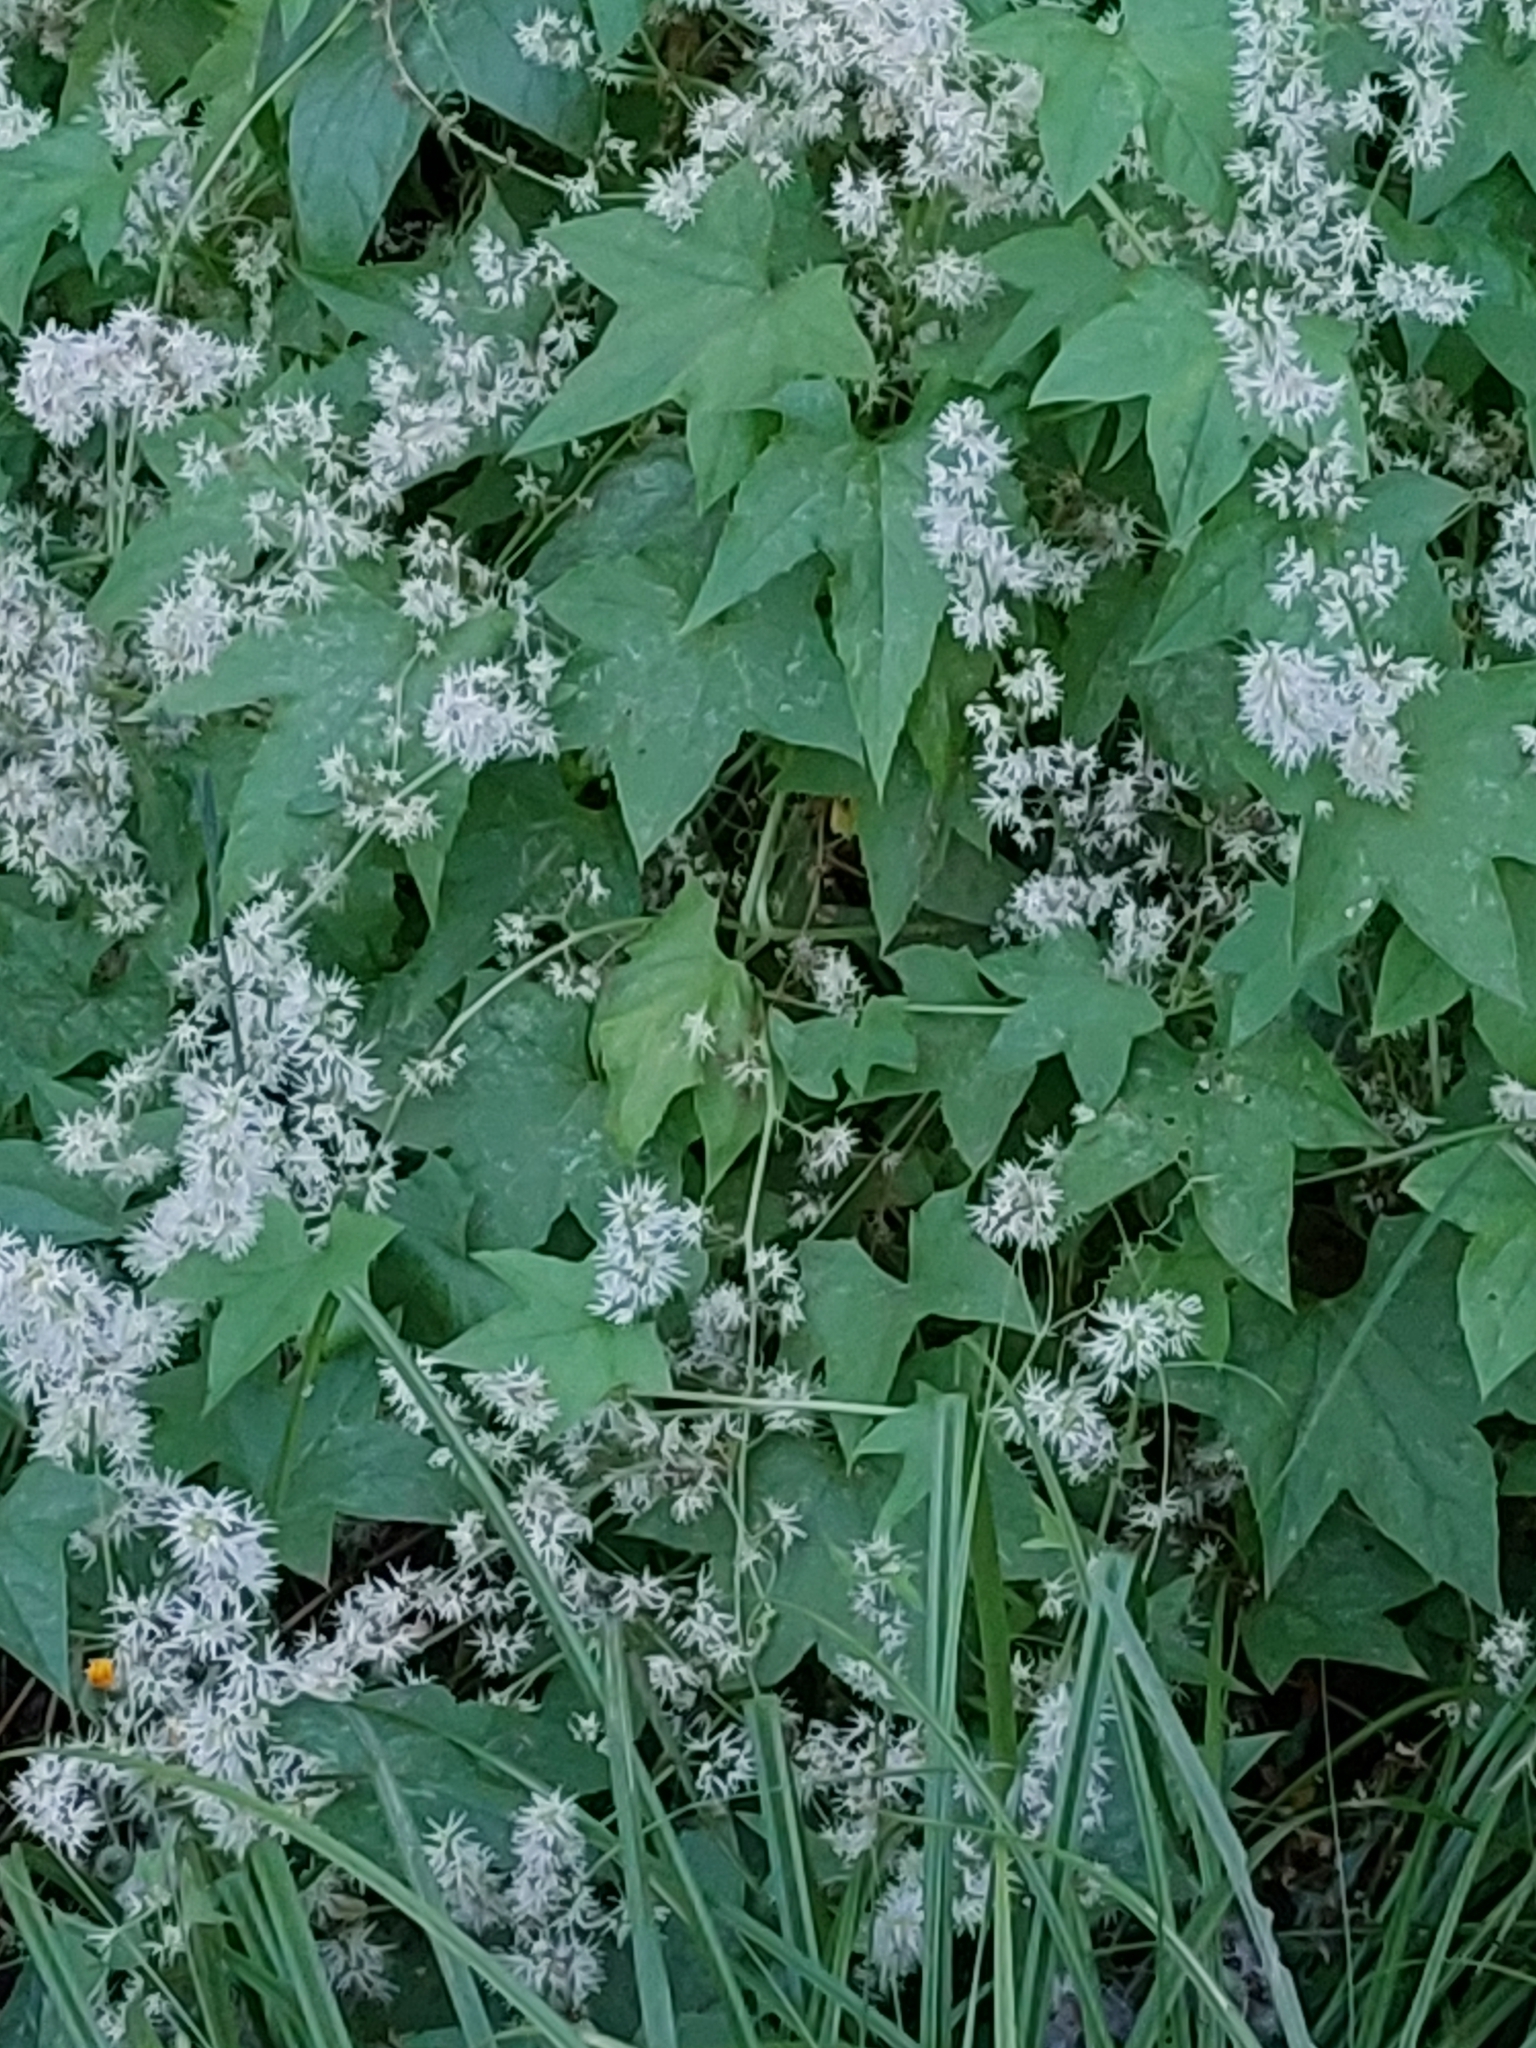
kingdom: Plantae
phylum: Tracheophyta
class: Magnoliopsida
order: Cucurbitales
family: Cucurbitaceae
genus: Echinocystis
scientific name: Echinocystis lobata
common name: Wild cucumber
